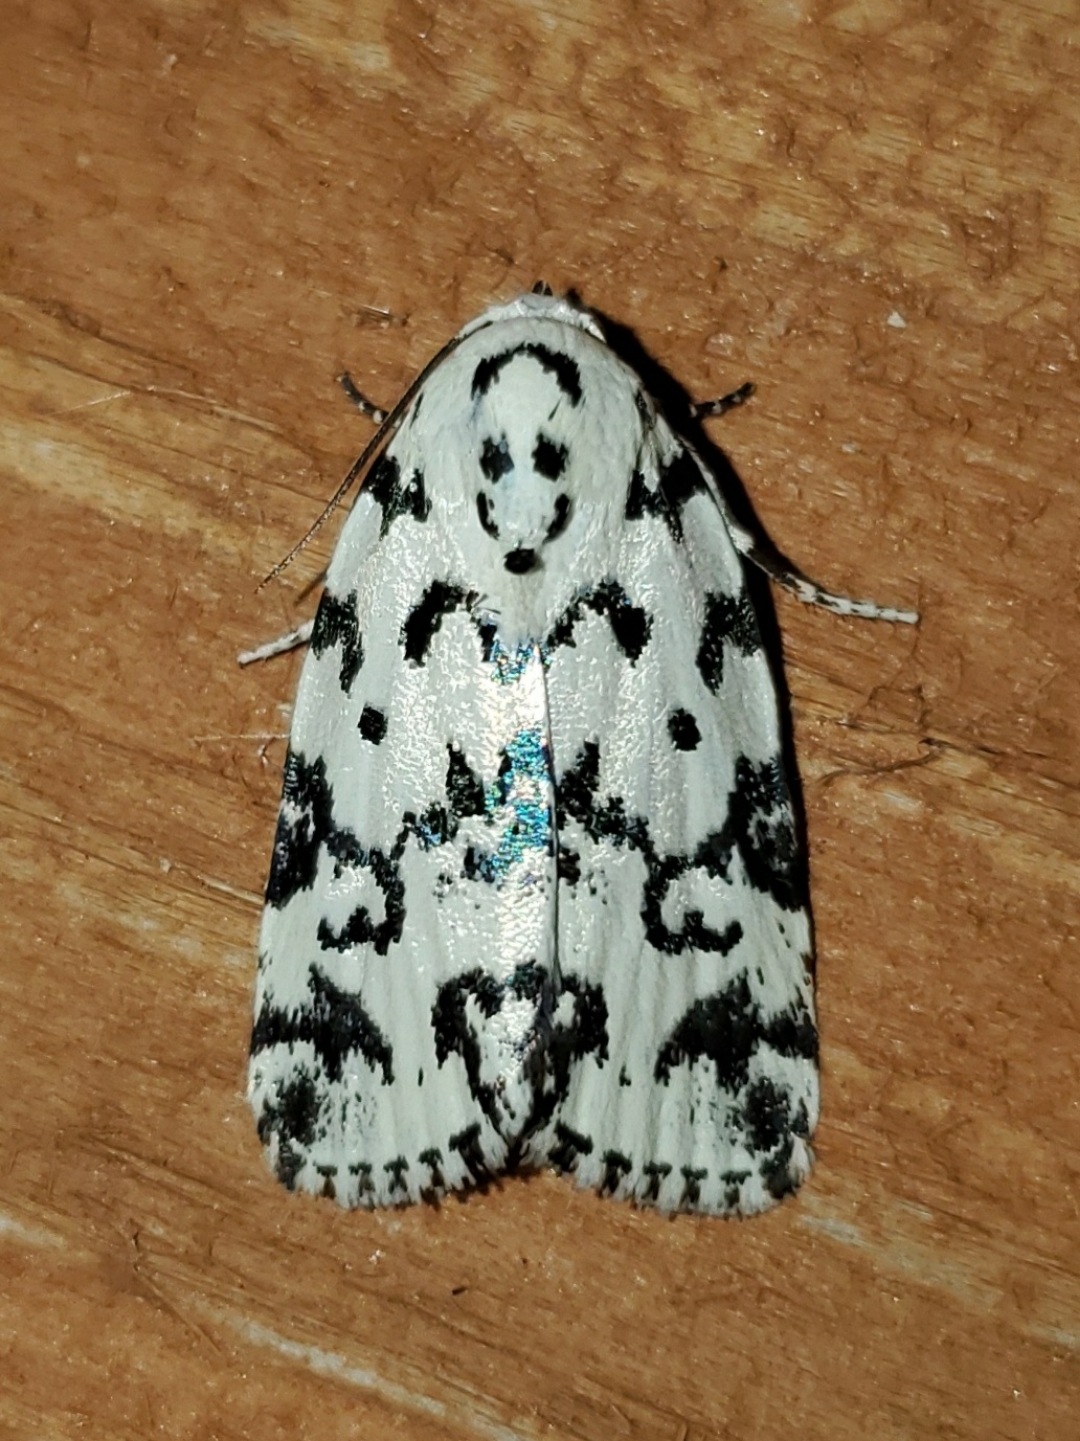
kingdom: Animalia
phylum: Arthropoda
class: Insecta
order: Lepidoptera
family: Noctuidae
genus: Polygrammate
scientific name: Polygrammate hebraeicum
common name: Hebrew moth
